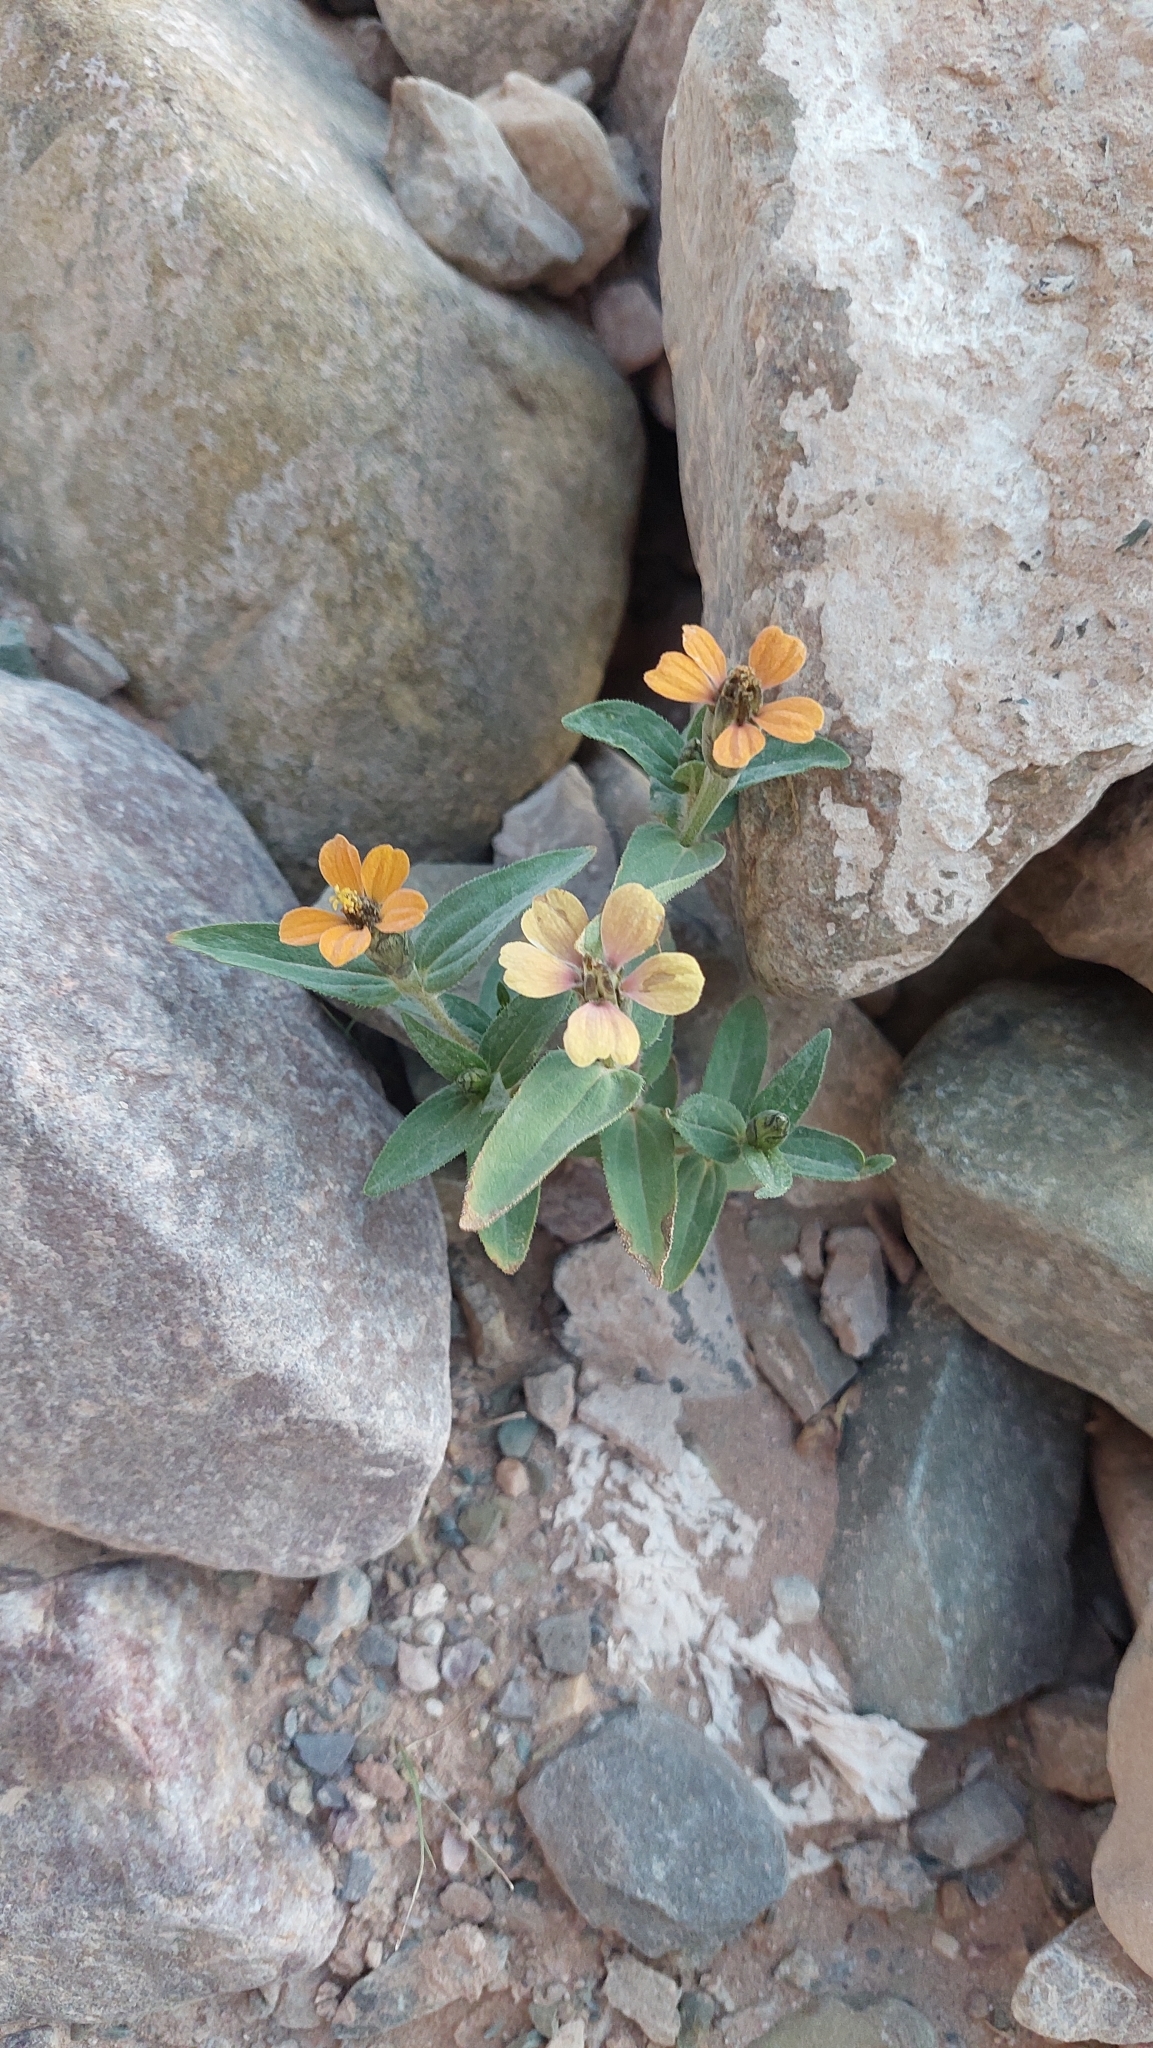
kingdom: Plantae
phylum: Tracheophyta
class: Magnoliopsida
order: Asterales
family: Asteraceae
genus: Zinnia
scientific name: Zinnia peruviana
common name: Peruvian zinnia
